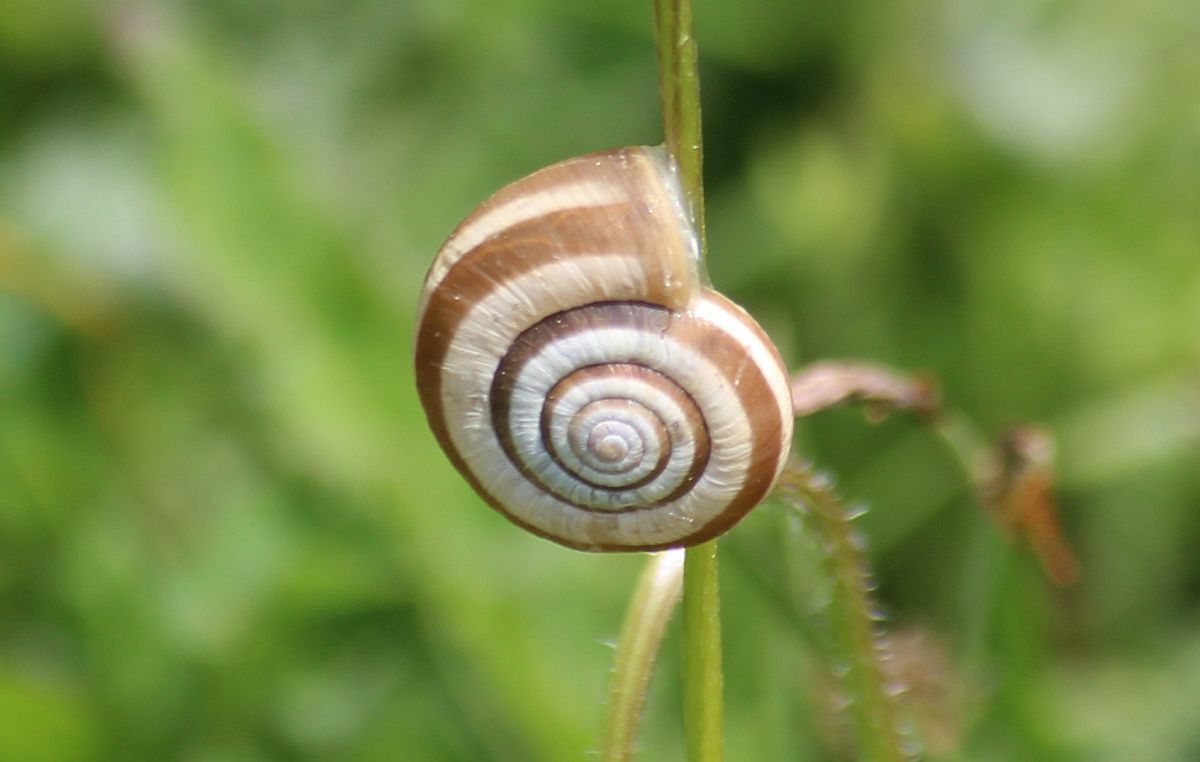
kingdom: Animalia
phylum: Mollusca
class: Gastropoda
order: Stylommatophora
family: Geomitridae
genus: Helicella
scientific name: Helicella itala
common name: Heath snail
